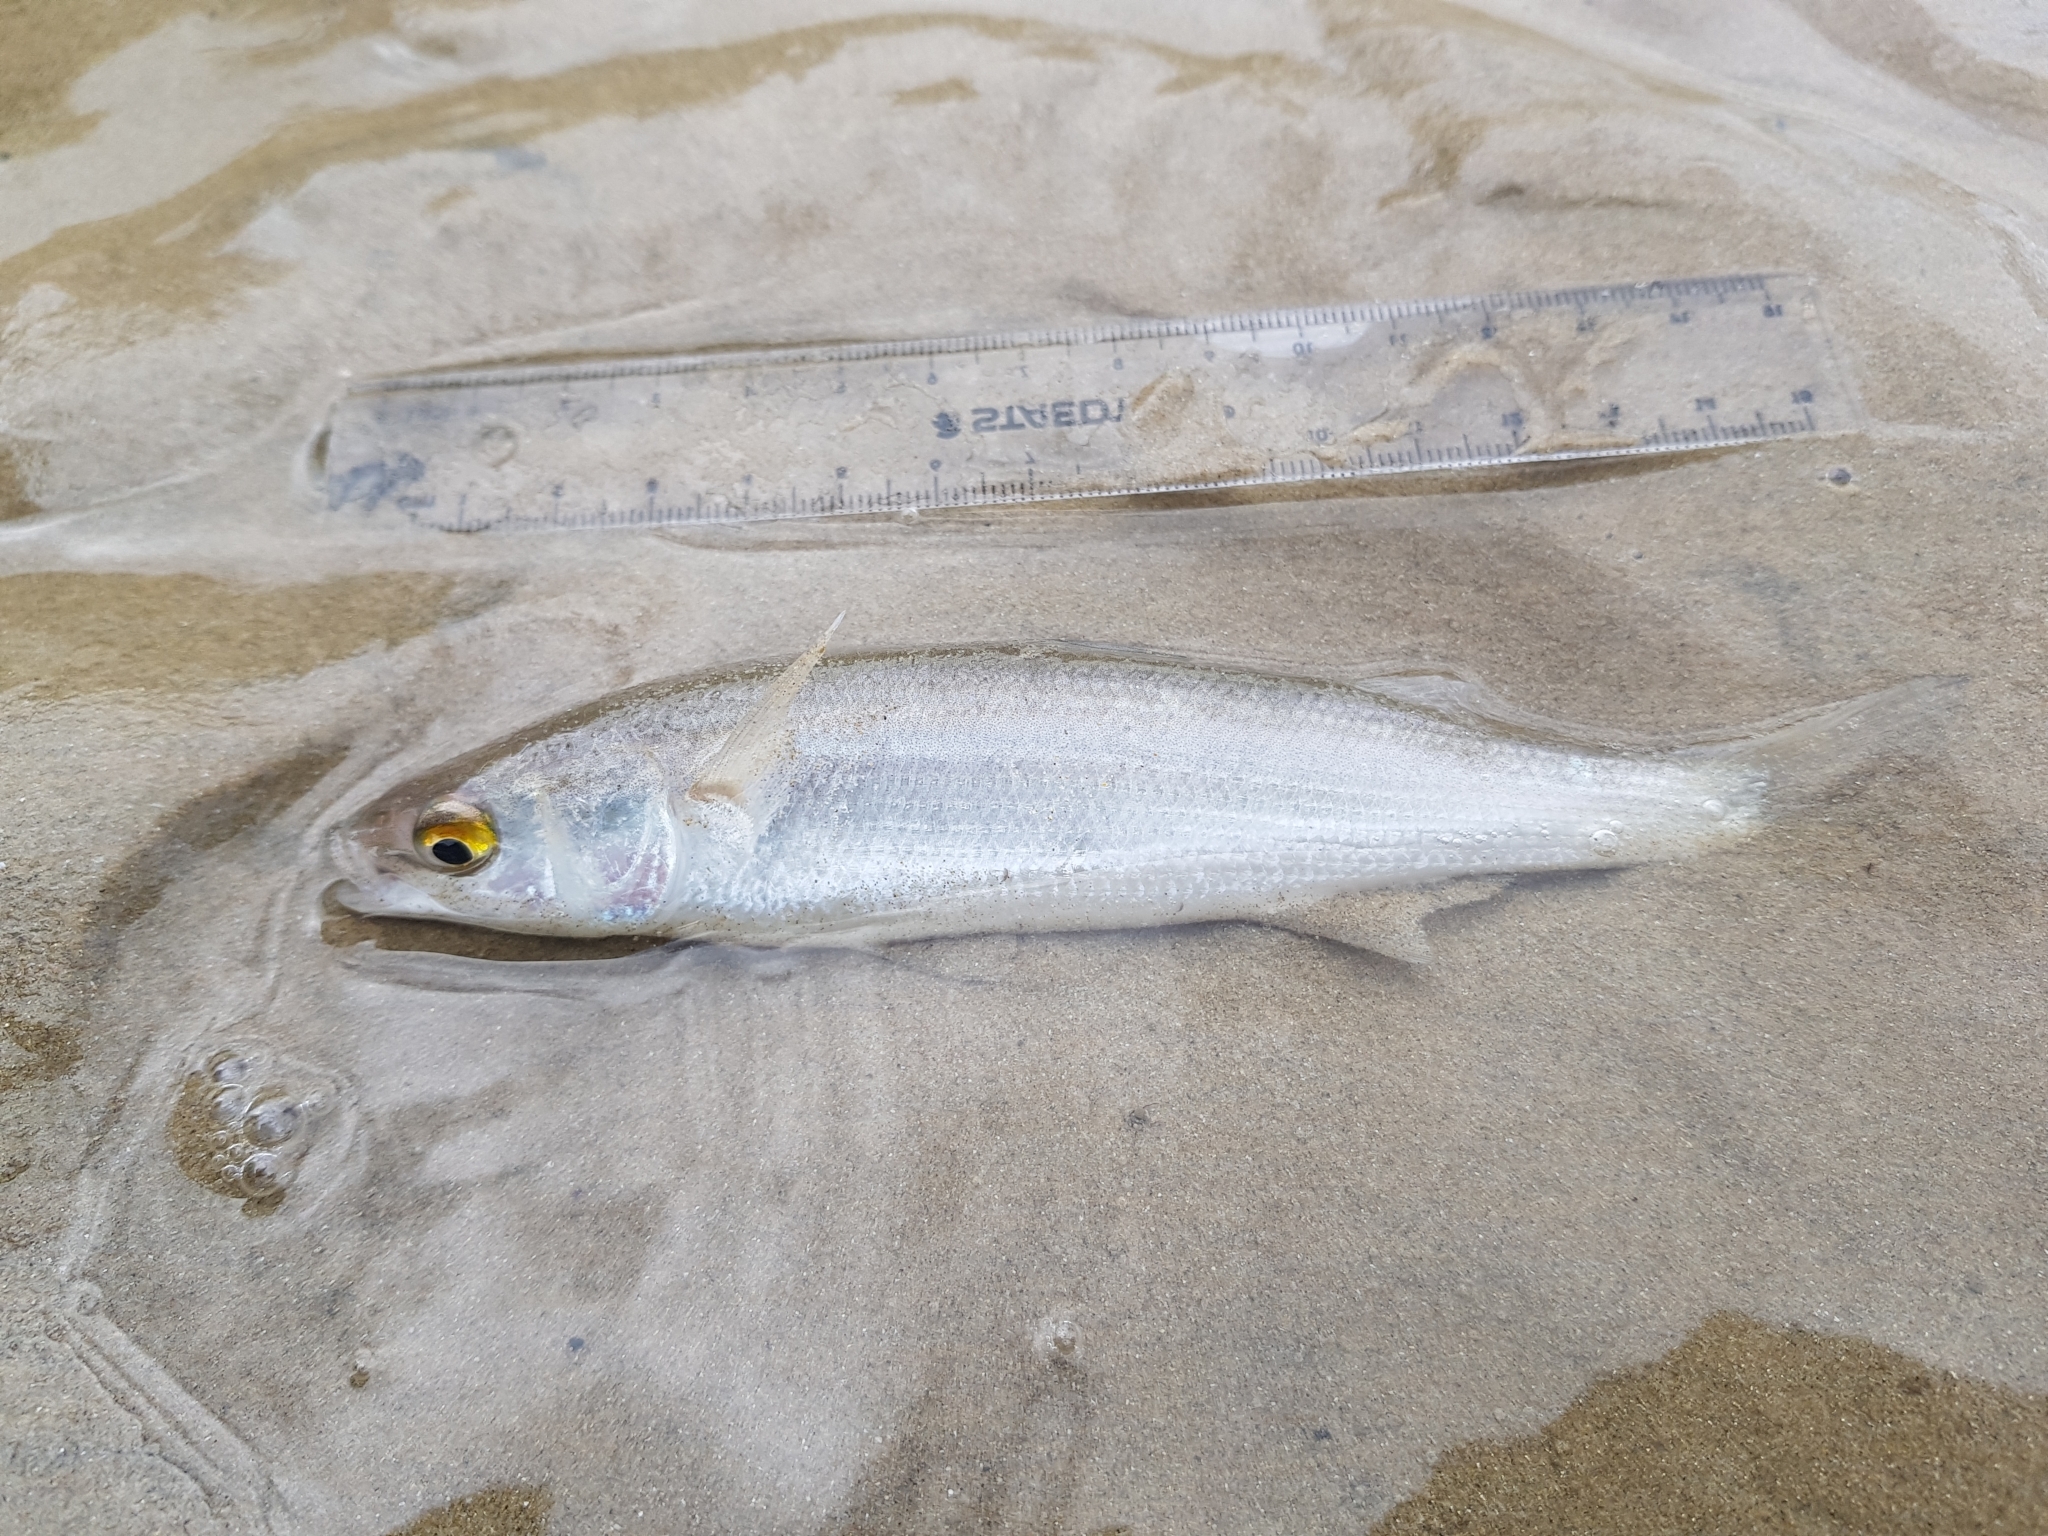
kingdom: Animalia
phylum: Chordata
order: Mugiliformes
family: Mugilidae
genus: Aldrichetta
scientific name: Aldrichetta forsteri
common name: Yellow-eye mullet
